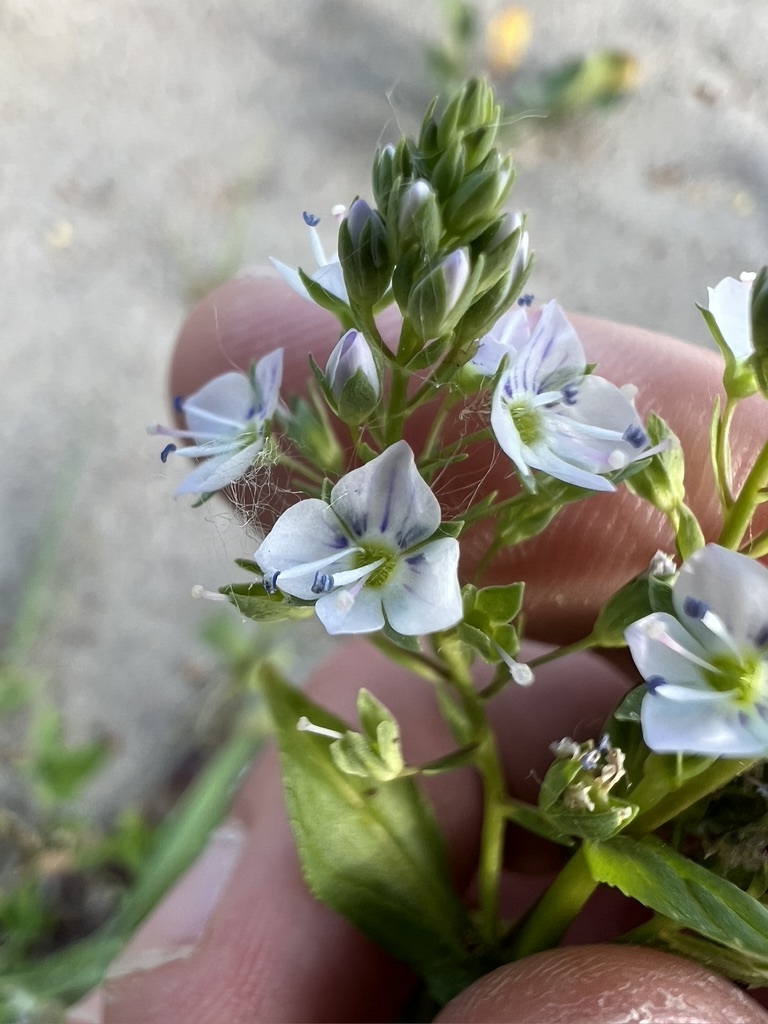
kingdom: Plantae
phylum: Tracheophyta
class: Magnoliopsida
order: Lamiales
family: Plantaginaceae
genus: Veronica
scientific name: Veronica anagallis-aquatica
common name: Water speedwell
